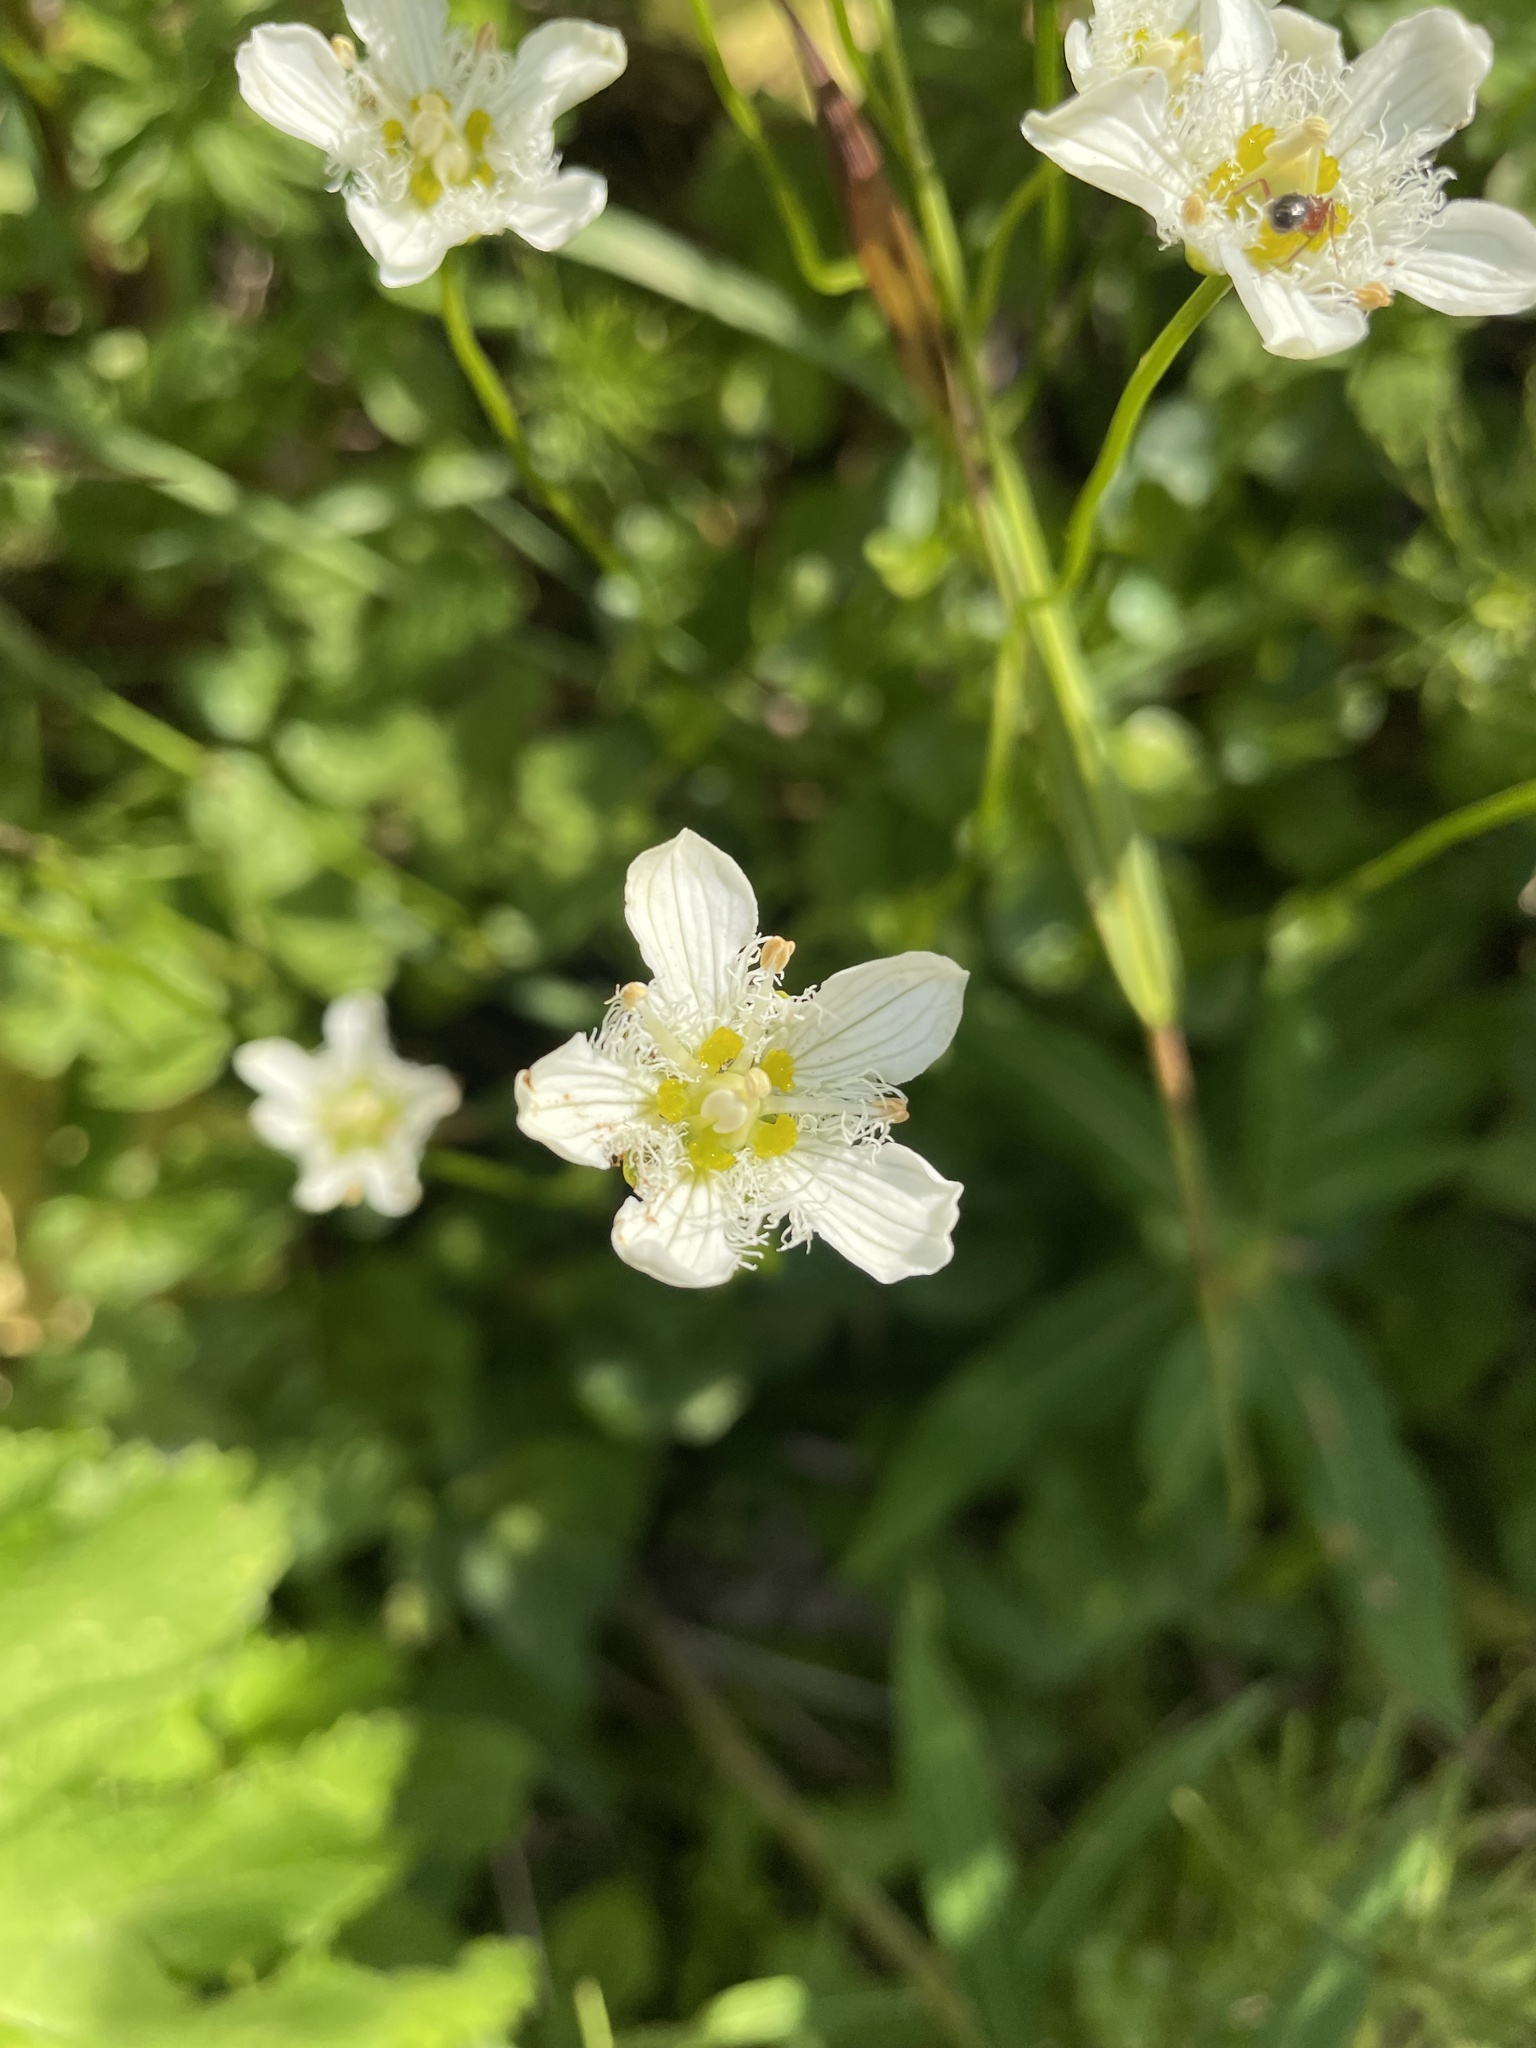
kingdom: Plantae
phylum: Tracheophyta
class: Magnoliopsida
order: Celastrales
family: Parnassiaceae
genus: Parnassia
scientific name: Parnassia fimbriata
